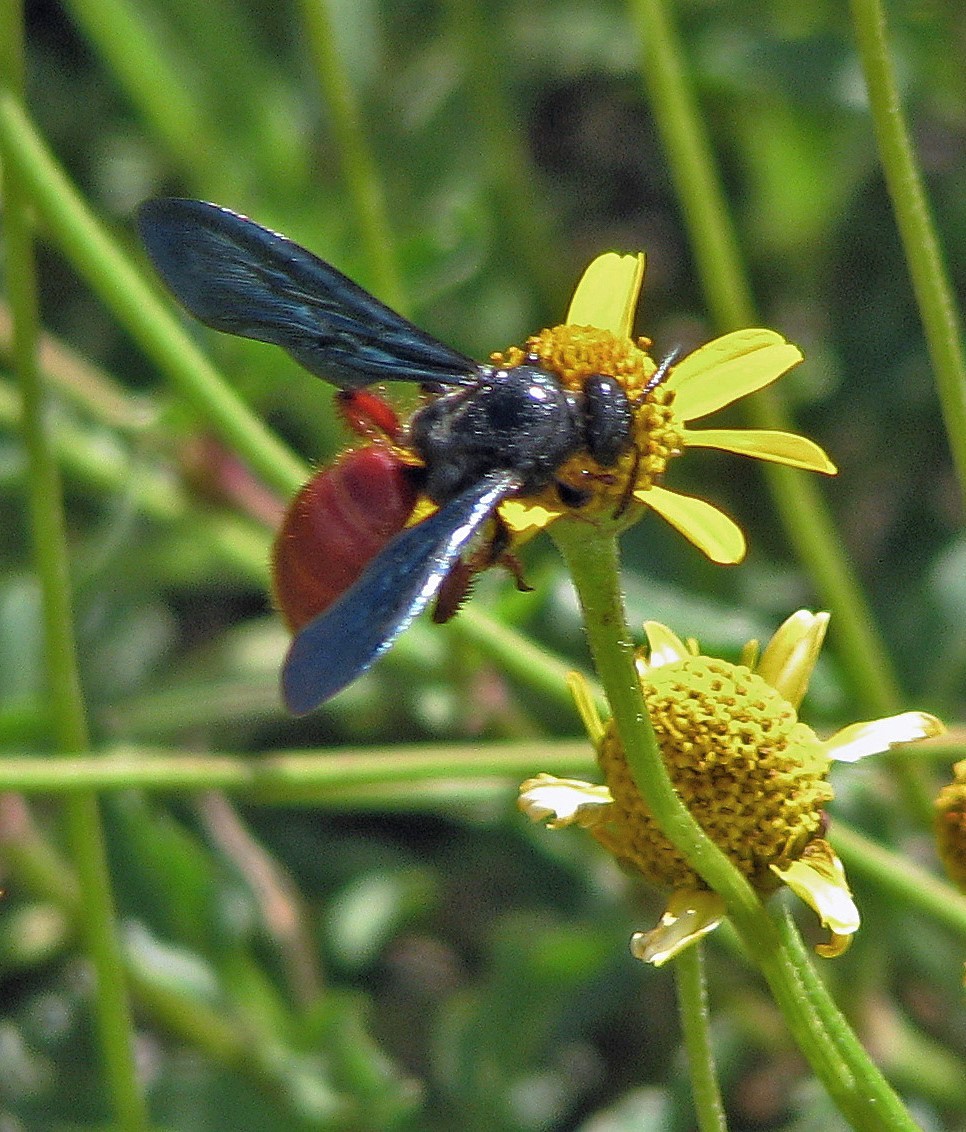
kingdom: Animalia
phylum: Arthropoda
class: Insecta
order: Hymenoptera
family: Scoliidae
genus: Scolia
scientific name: Scolia rufiventris
